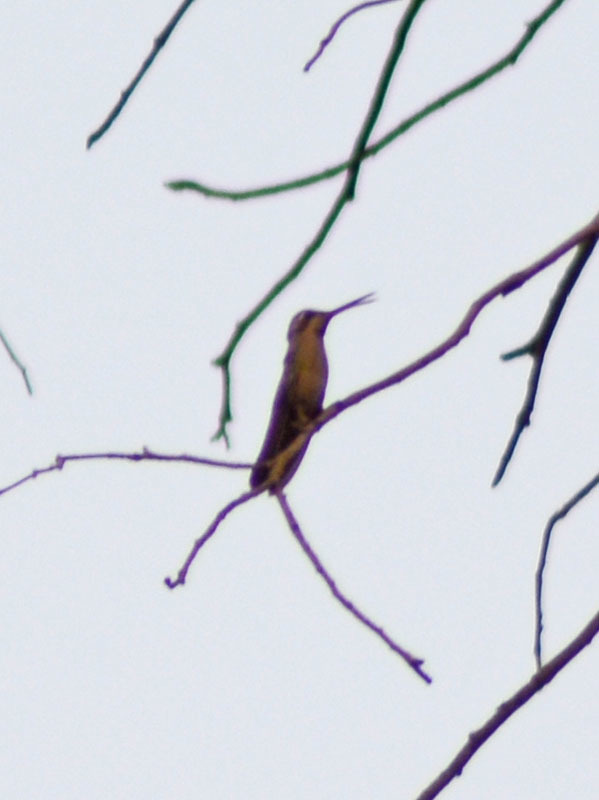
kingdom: Animalia
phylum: Chordata
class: Aves
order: Apodiformes
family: Trochilidae
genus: Cynanthus
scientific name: Cynanthus latirostris
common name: Broad-billed hummingbird
